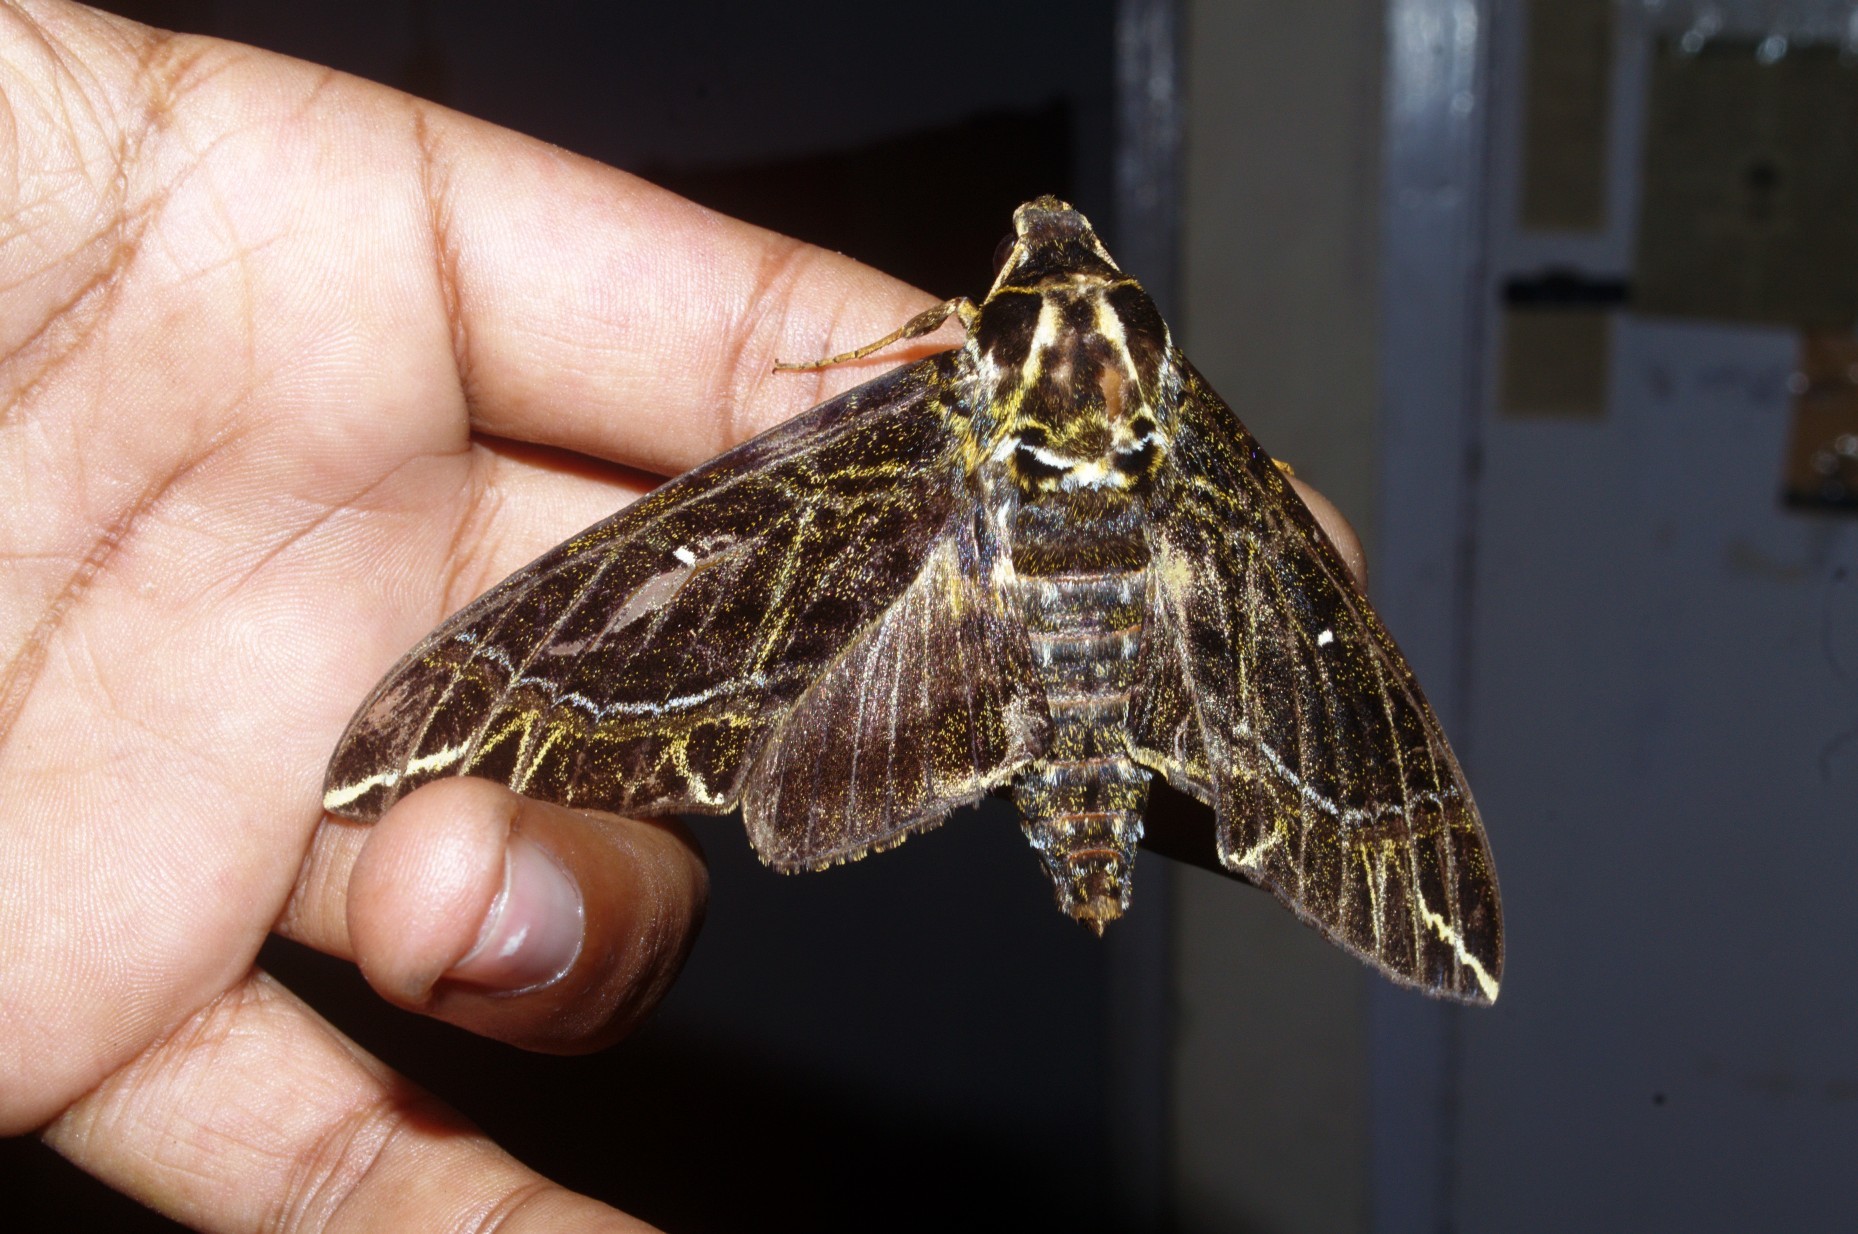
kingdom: Animalia
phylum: Arthropoda
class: Insecta
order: Lepidoptera
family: Sphingidae
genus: Apocalypsis
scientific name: Apocalypsis velox
